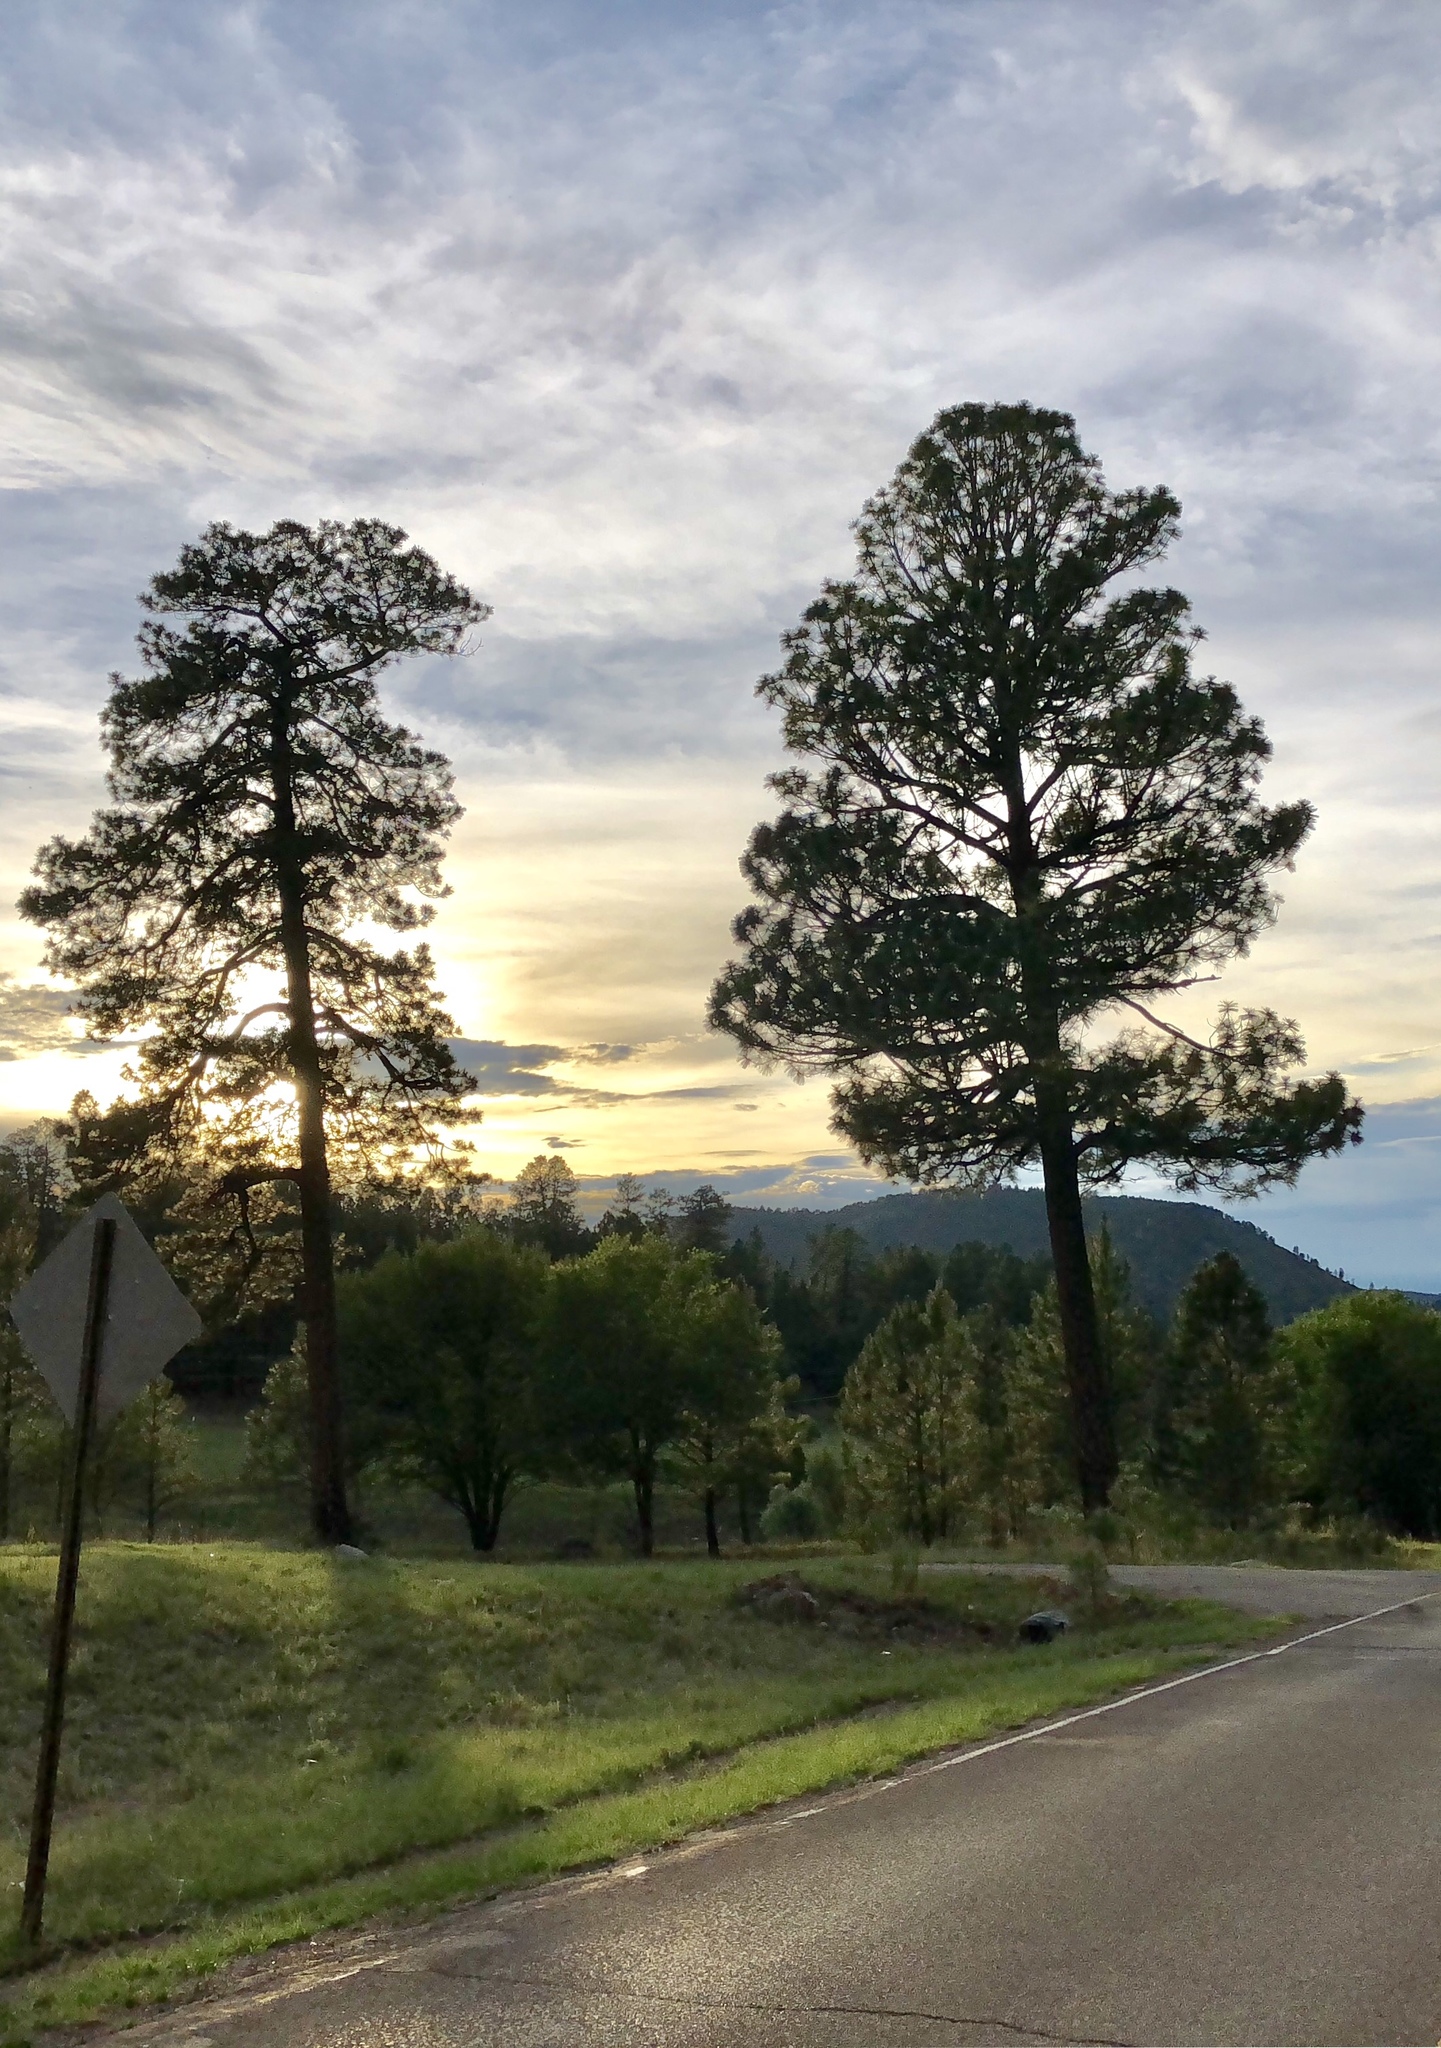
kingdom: Plantae
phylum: Tracheophyta
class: Pinopsida
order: Pinales
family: Pinaceae
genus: Pinus
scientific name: Pinus ponderosa
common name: Western yellow-pine
